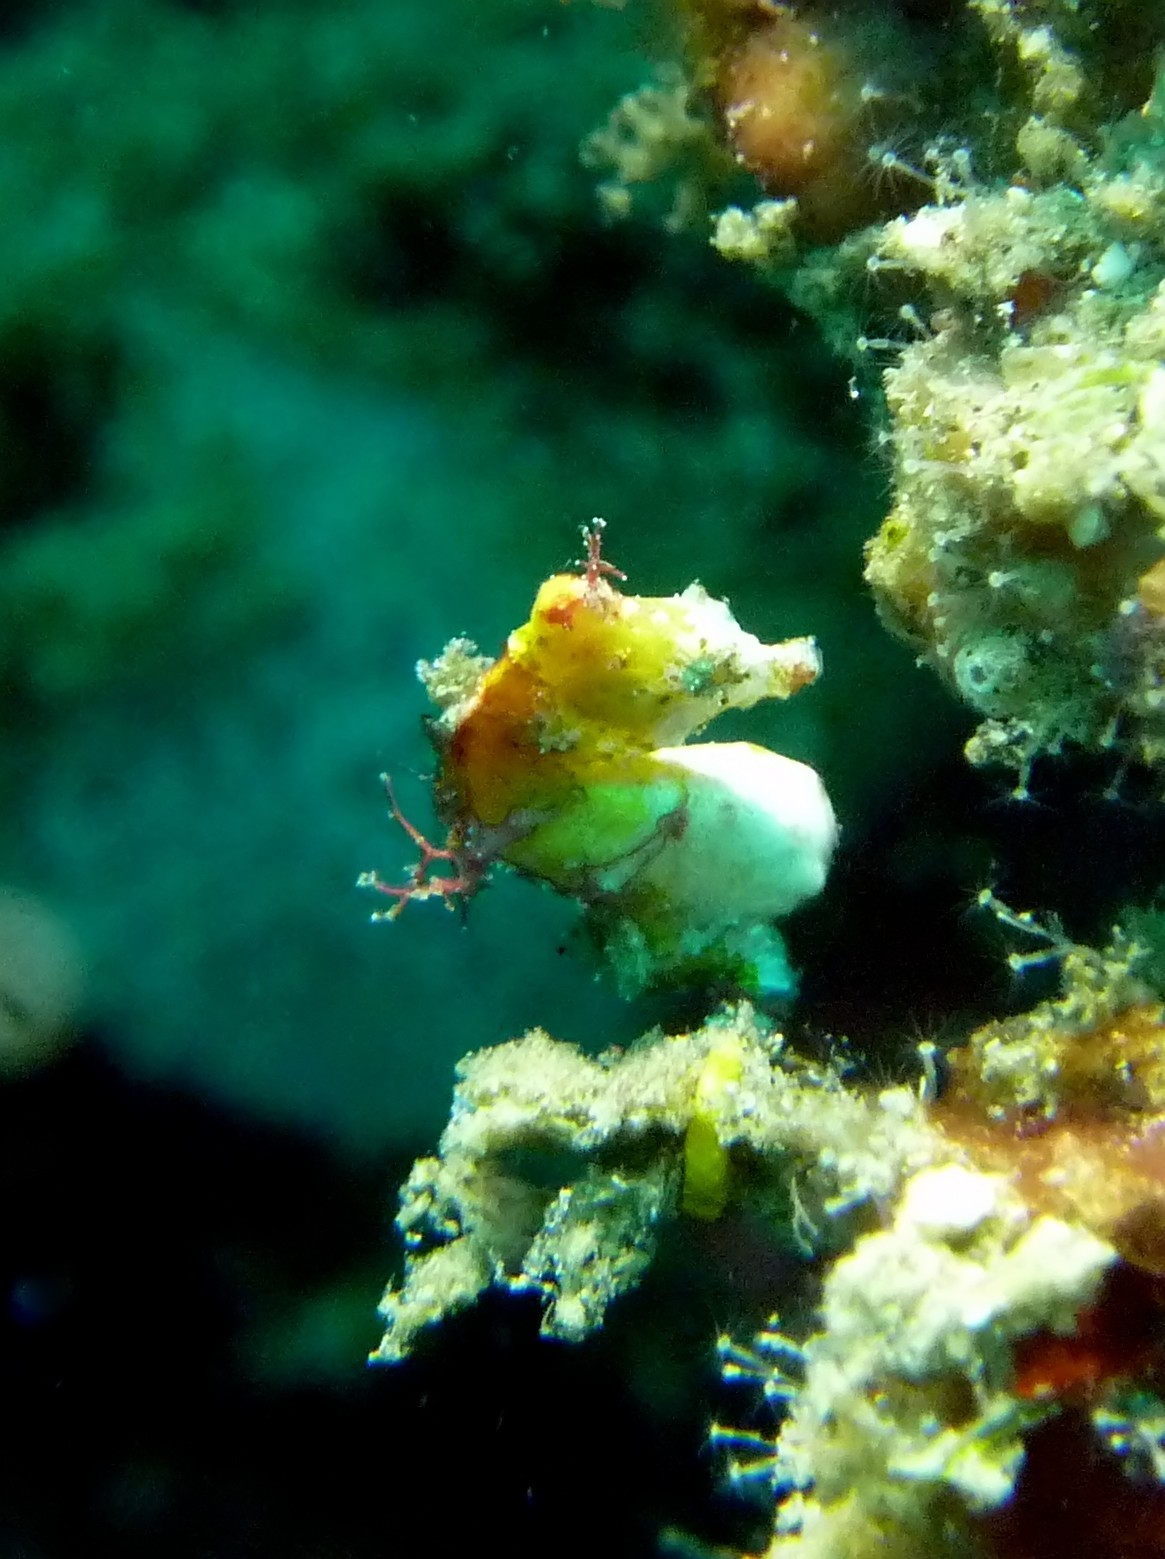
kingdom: Animalia
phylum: Chordata
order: Syngnathiformes
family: Syngnathidae
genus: Hippocampus
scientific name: Hippocampus pontohi
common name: Pontoh`s pygmy seahorse
